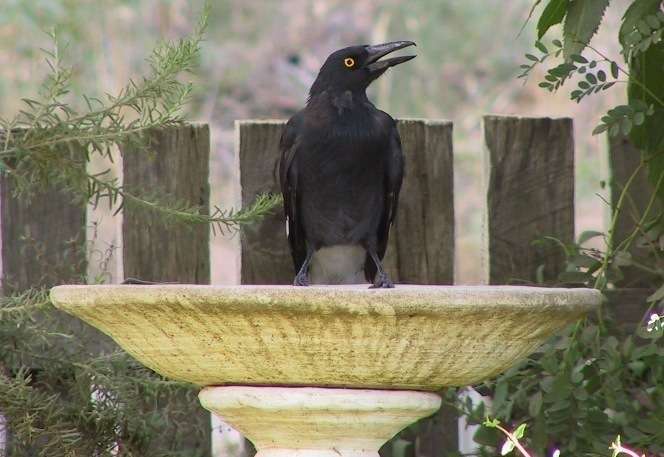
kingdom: Animalia
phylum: Chordata
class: Aves
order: Passeriformes
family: Cracticidae
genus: Strepera
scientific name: Strepera graculina
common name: Pied currawong
